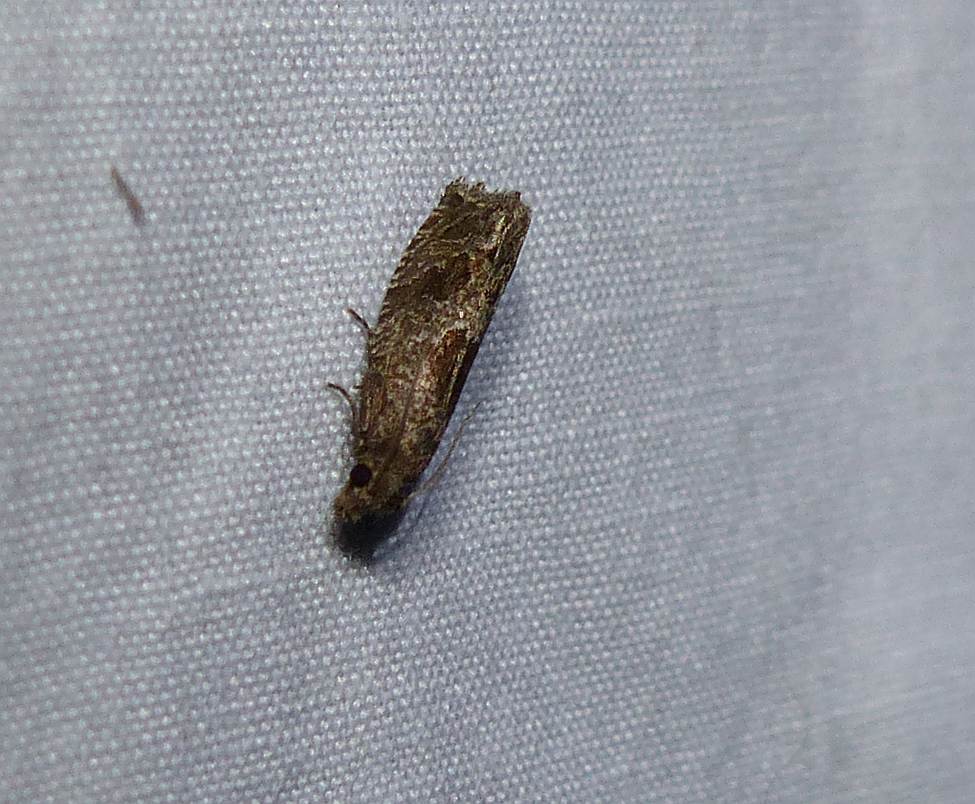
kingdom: Animalia
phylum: Arthropoda
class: Insecta
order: Lepidoptera
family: Tortricidae
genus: Pelochrista
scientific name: Pelochrista milleri
